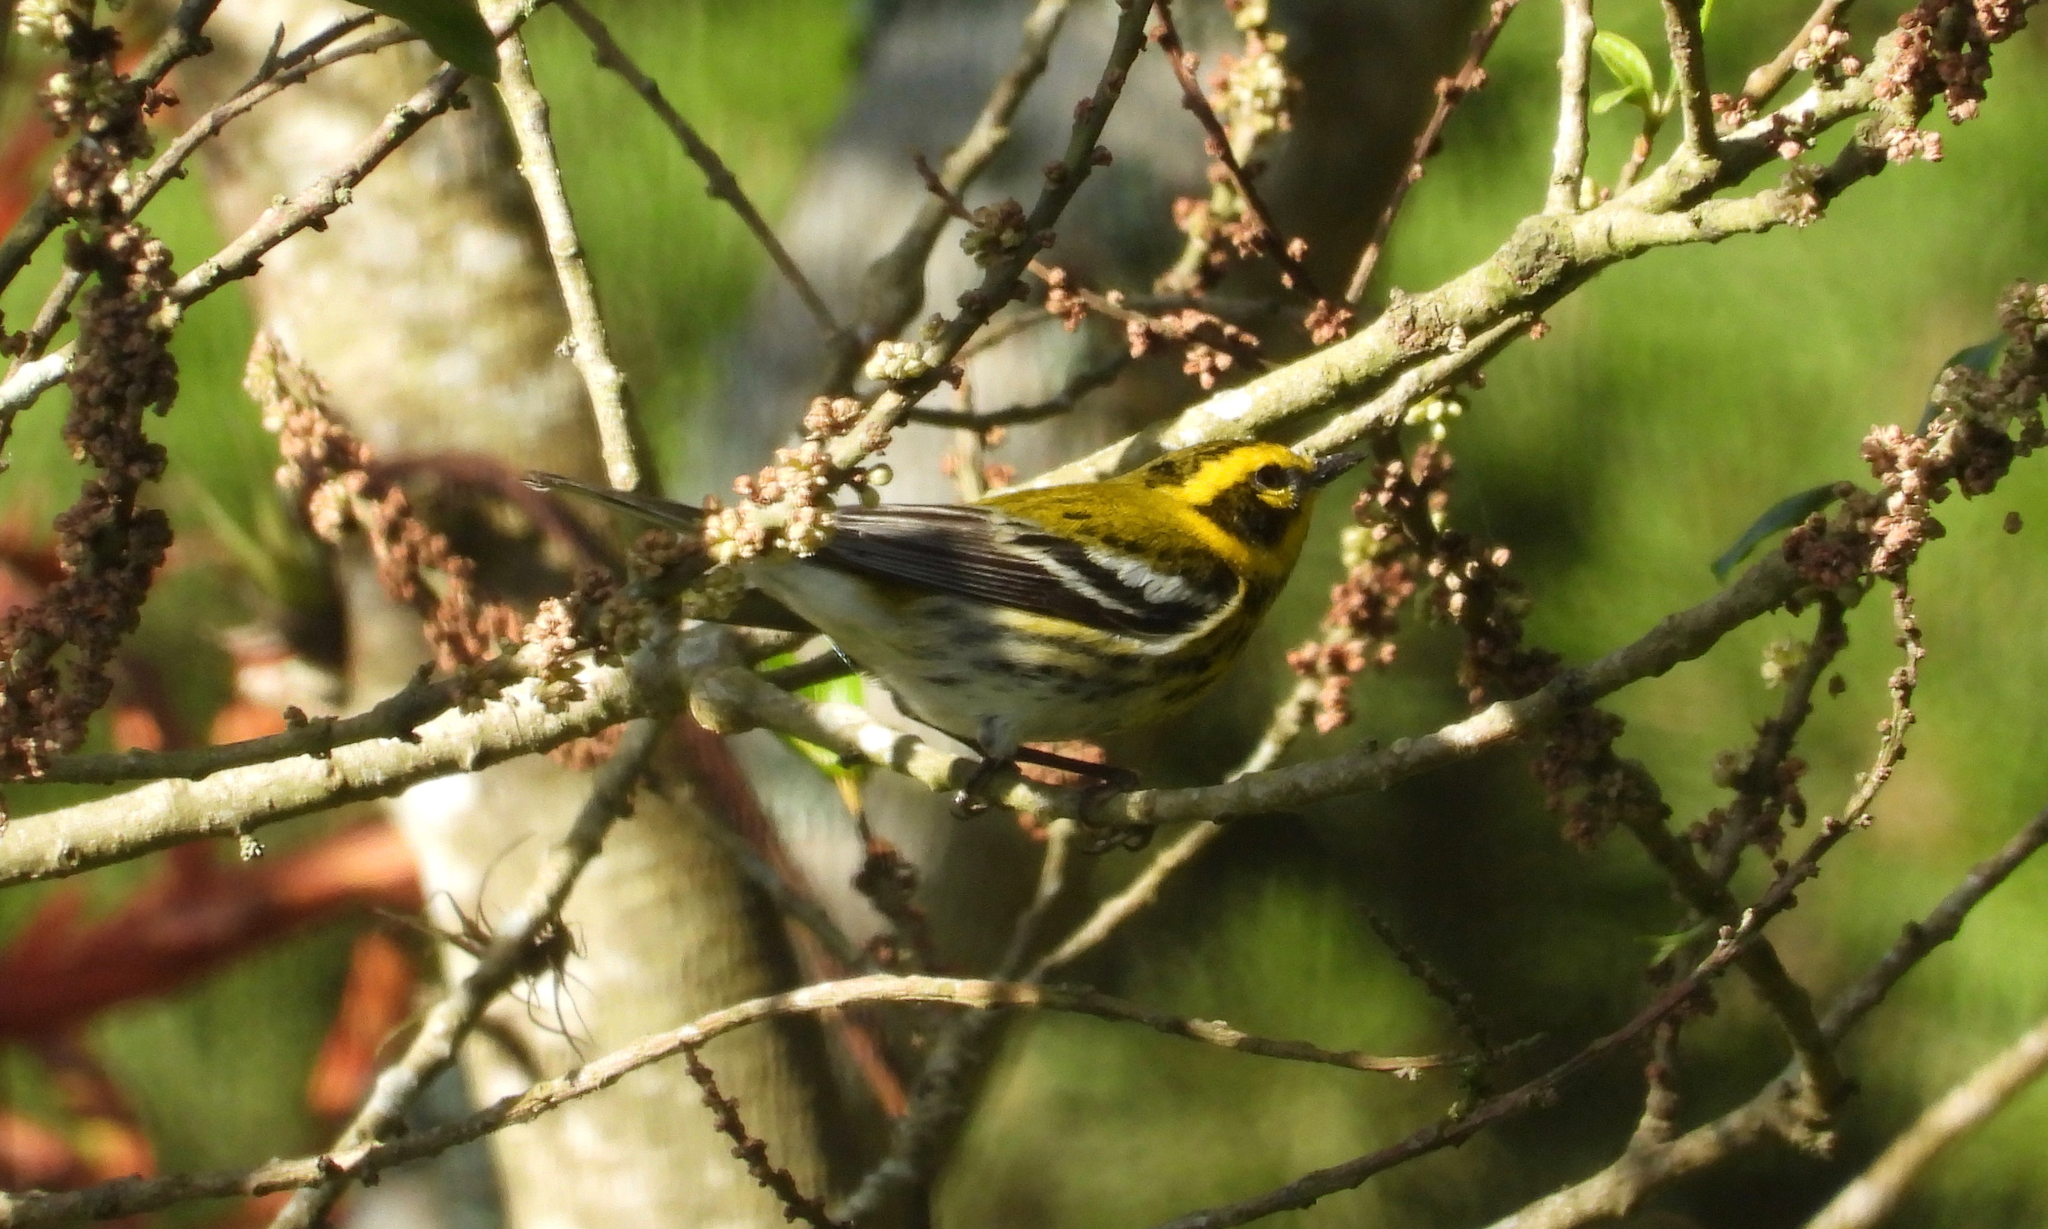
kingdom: Animalia
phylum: Chordata
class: Aves
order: Passeriformes
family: Parulidae
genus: Setophaga
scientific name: Setophaga townsendi
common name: Townsend's warbler
